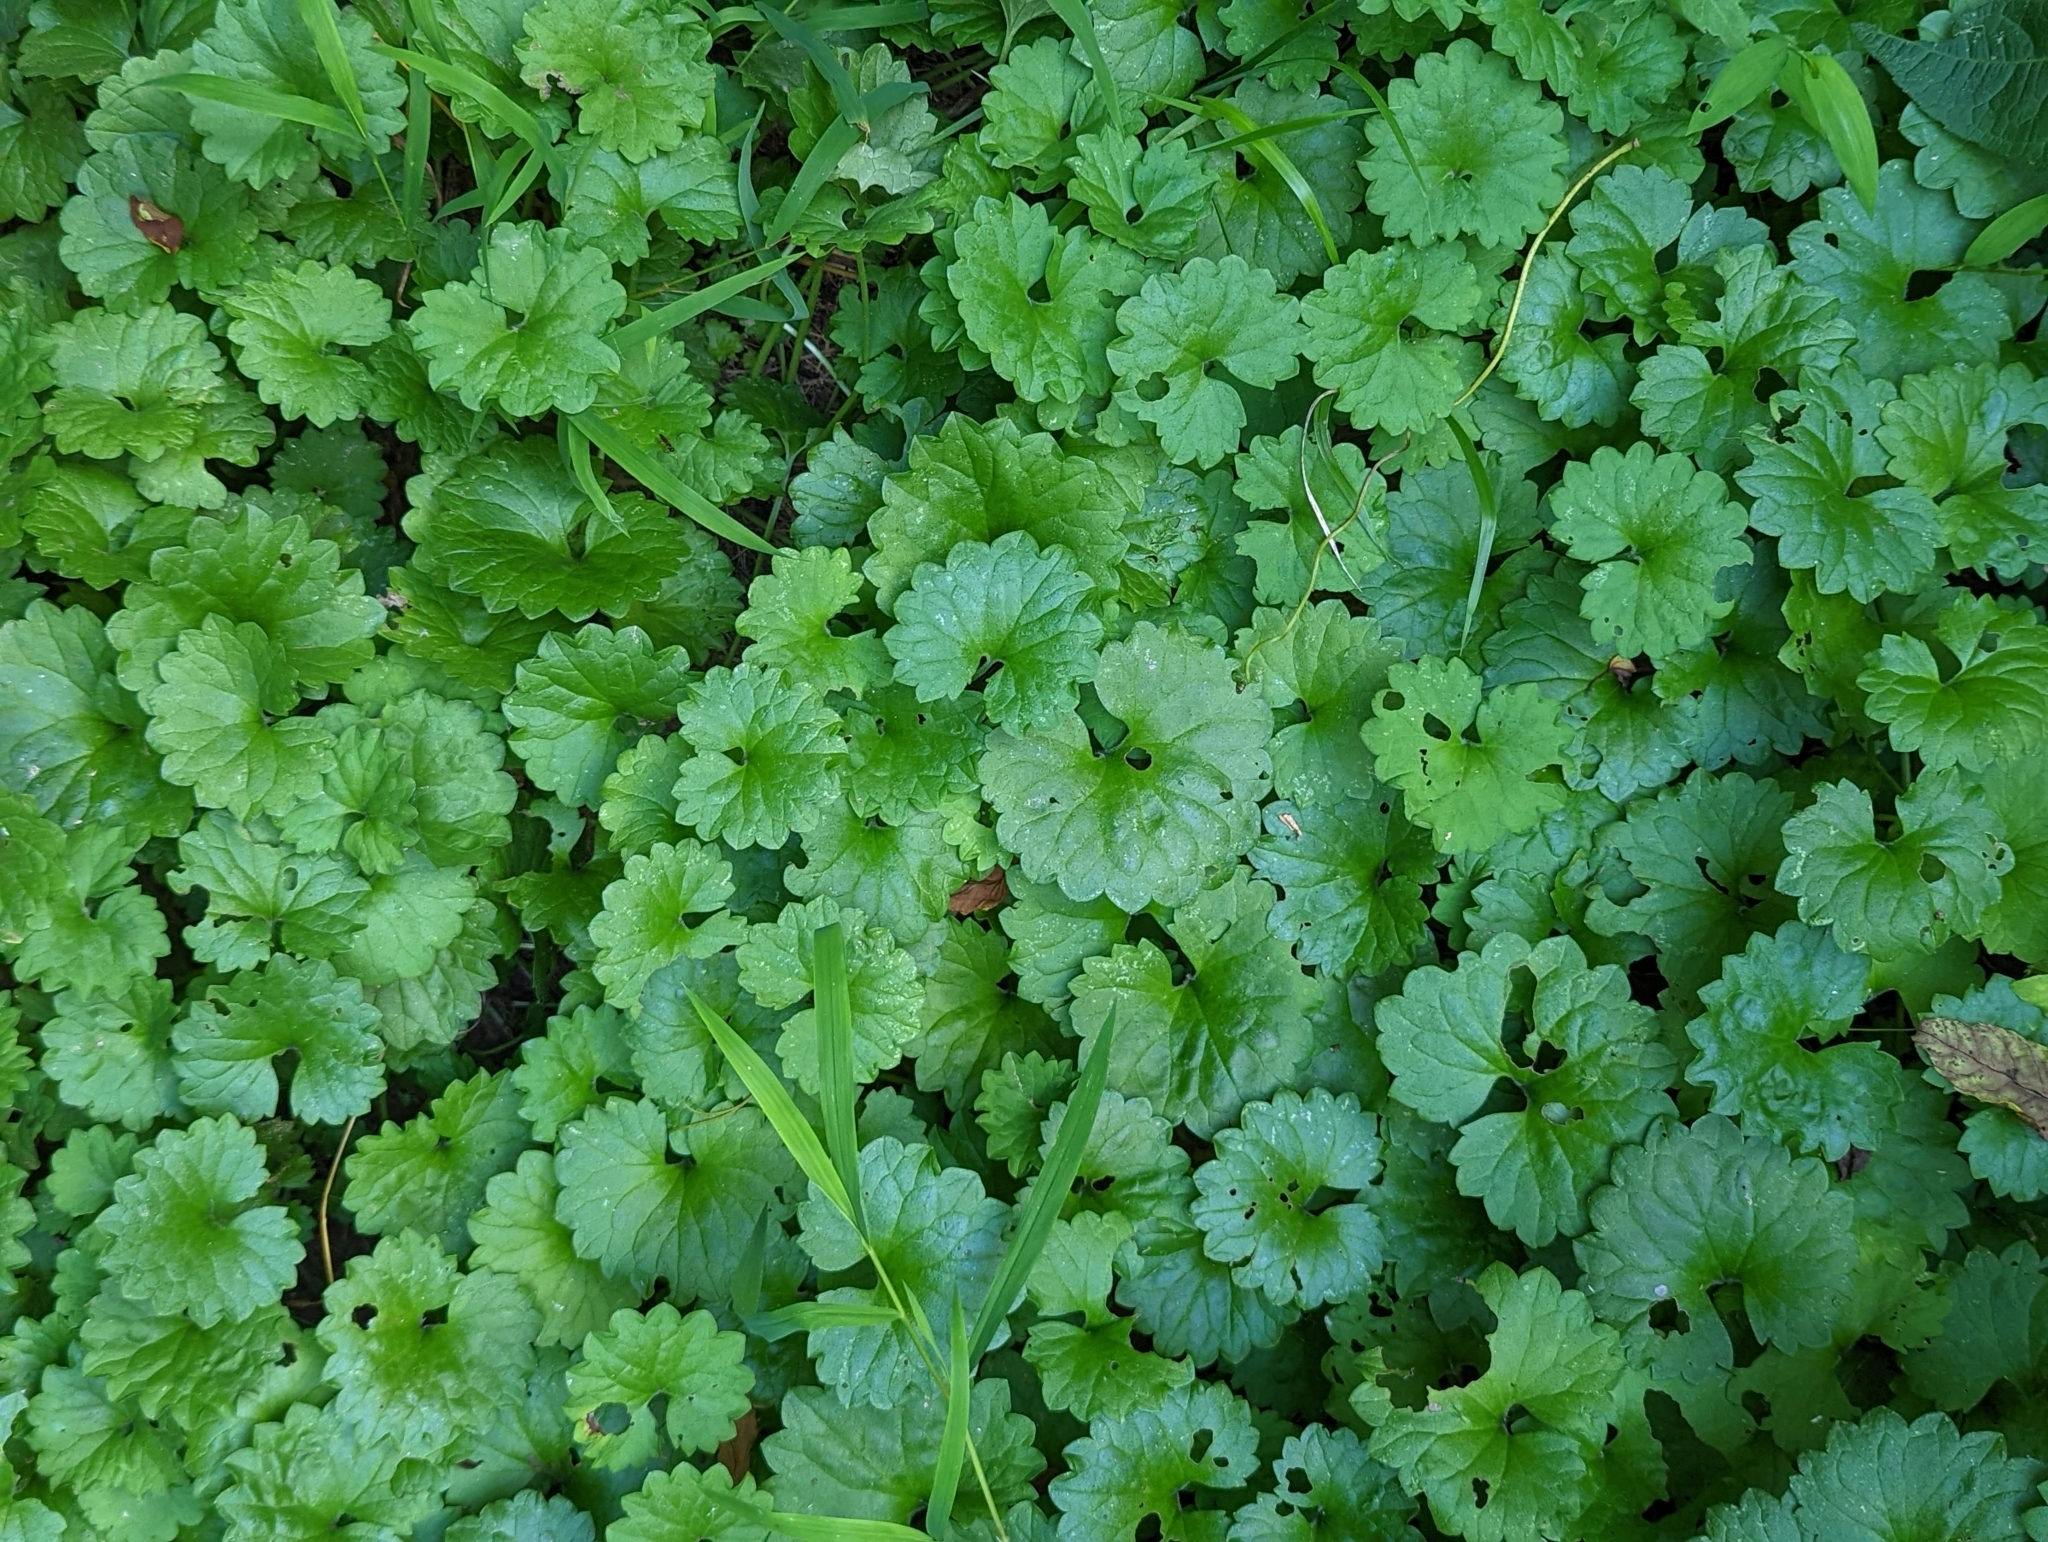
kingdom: Plantae
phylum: Tracheophyta
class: Magnoliopsida
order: Lamiales
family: Lamiaceae
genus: Glechoma
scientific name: Glechoma hederacea
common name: Ground ivy
